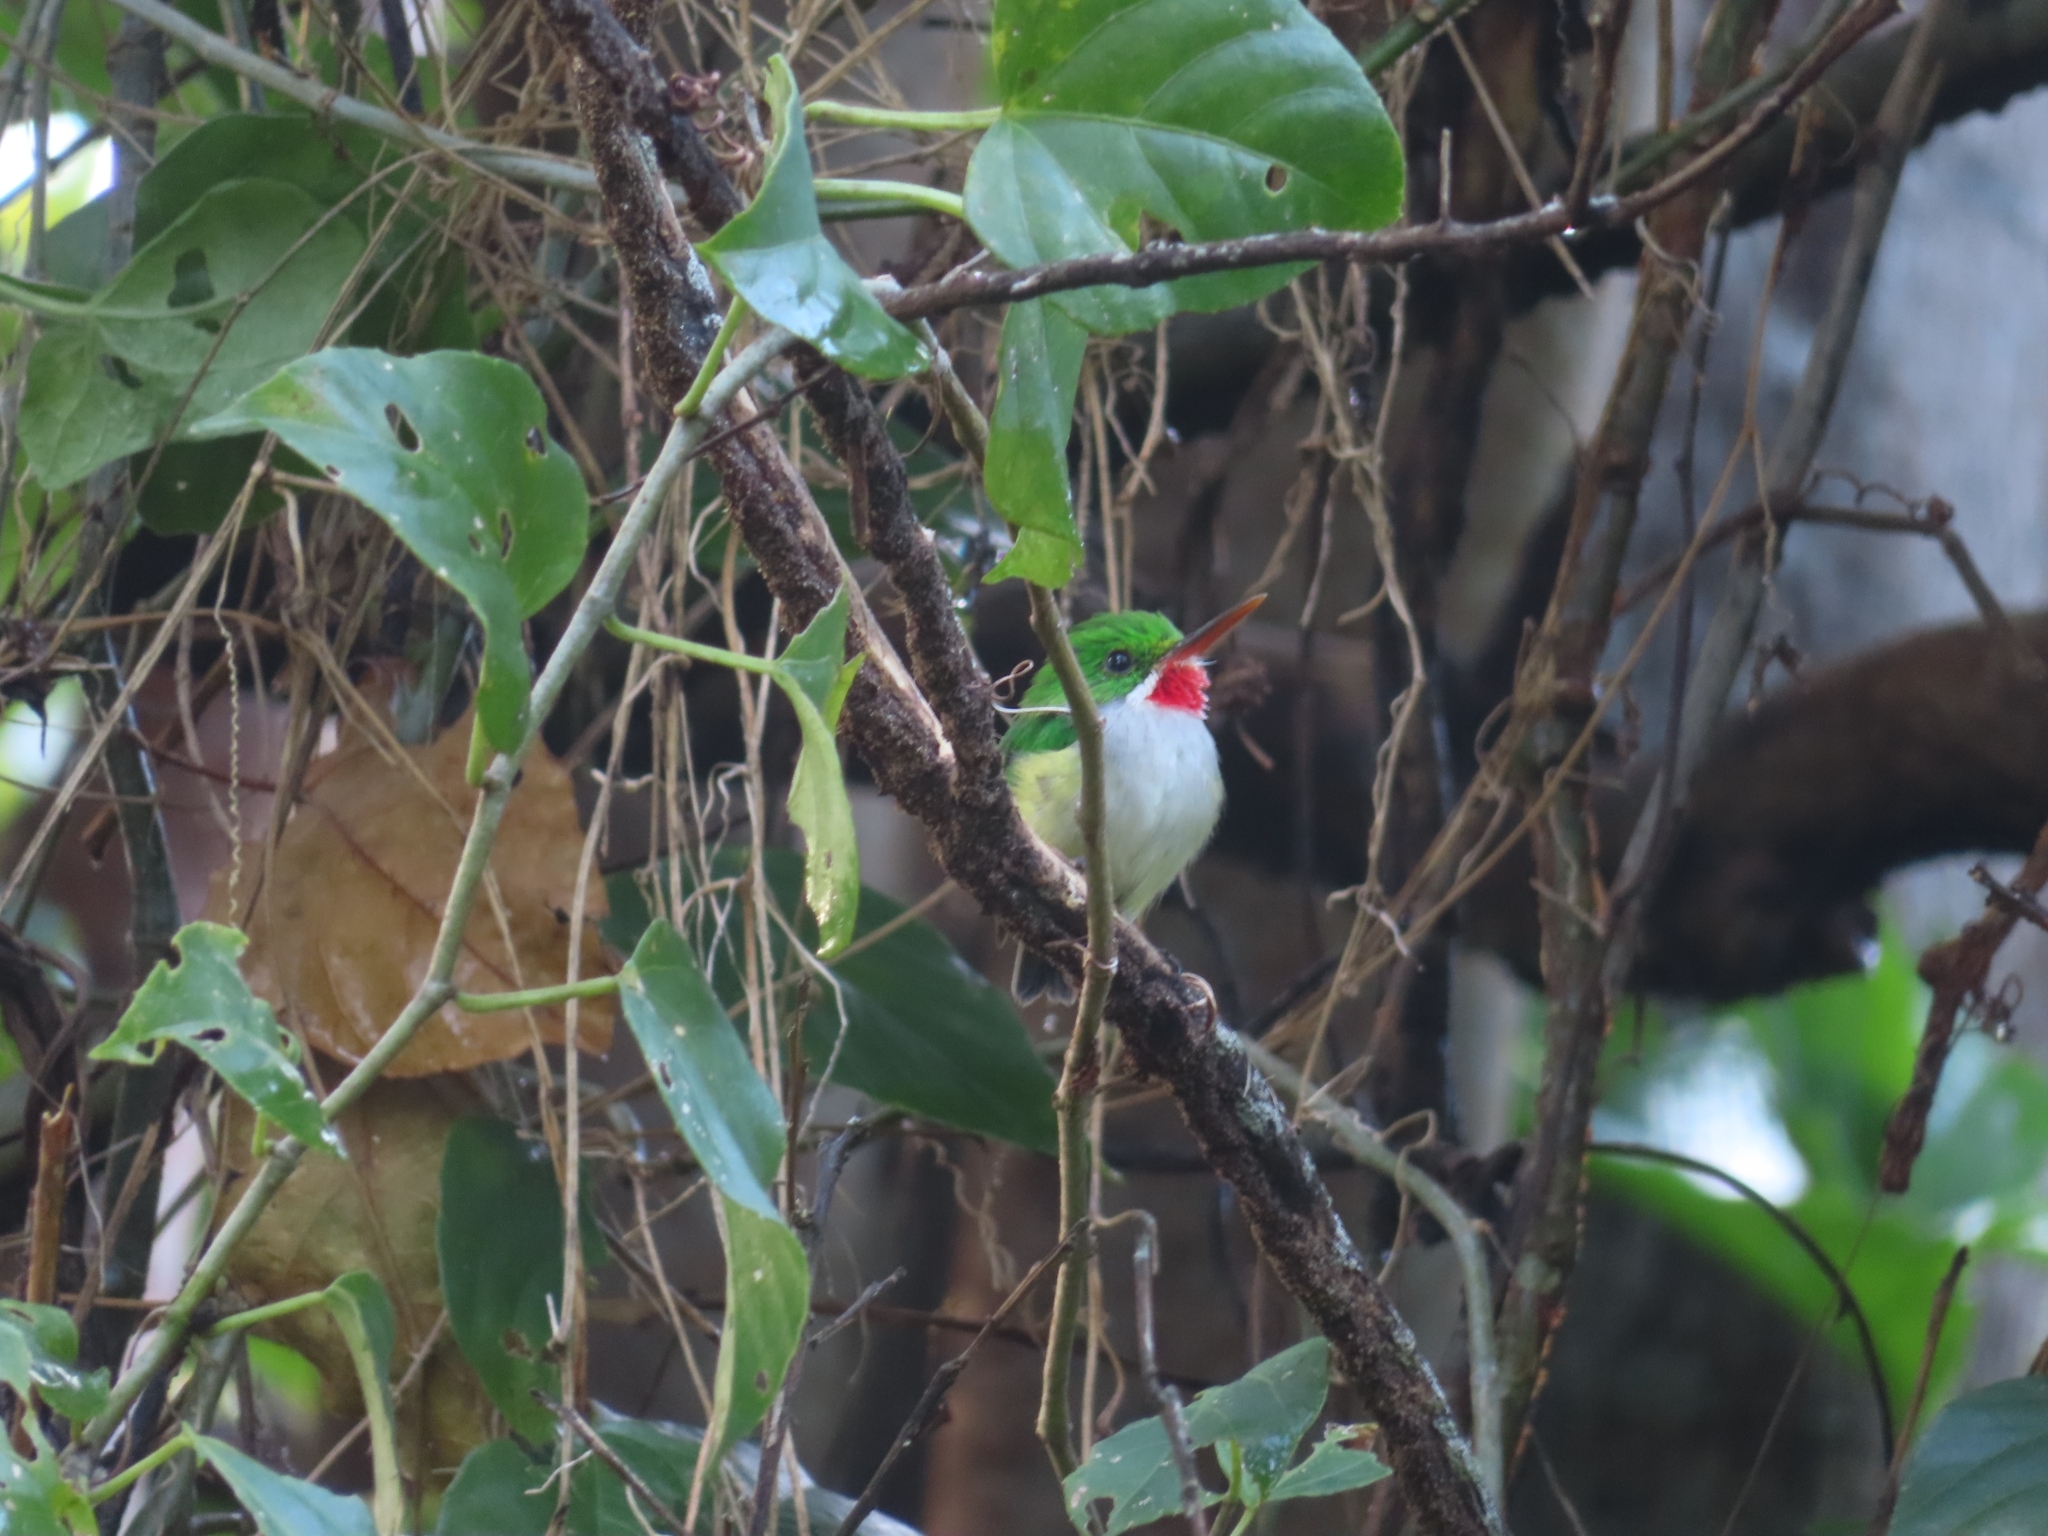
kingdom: Animalia
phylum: Chordata
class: Aves
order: Coraciiformes
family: Todidae
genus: Todus
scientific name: Todus mexicanus
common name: Puerto rican tody
